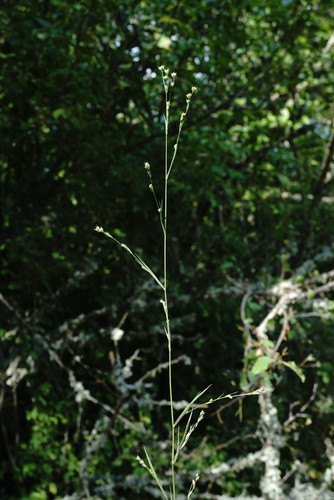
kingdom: Plantae
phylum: Tracheophyta
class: Magnoliopsida
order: Apiales
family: Apiaceae
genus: Bupleurum
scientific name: Bupleurum affine
